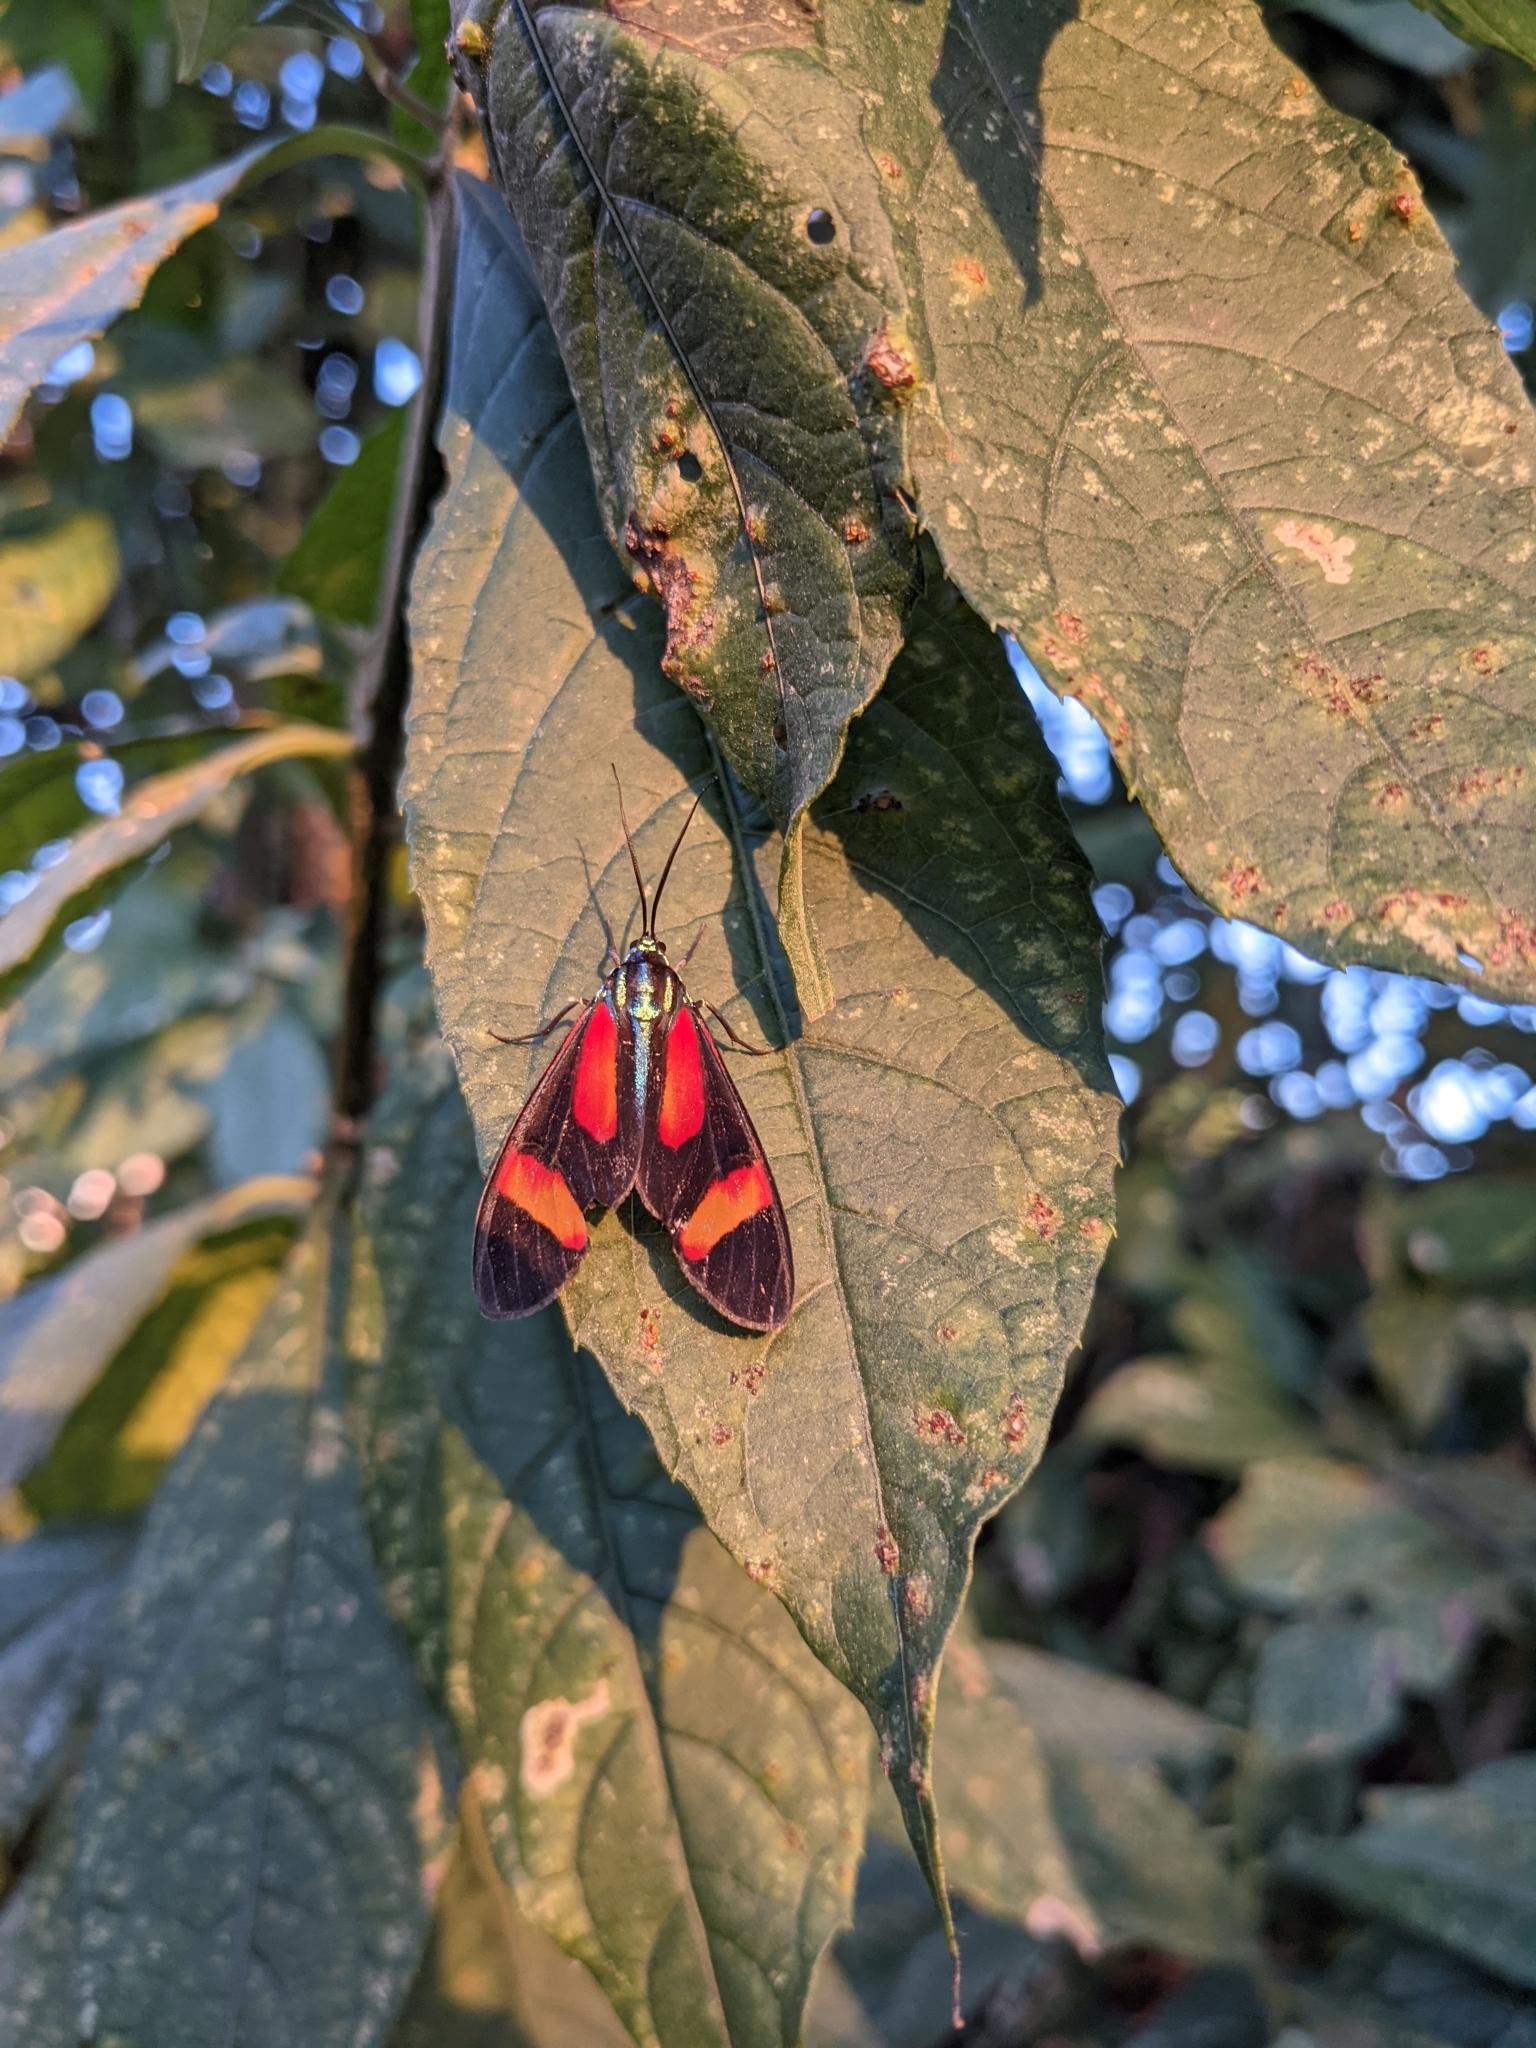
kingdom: Animalia
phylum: Arthropoda
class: Insecta
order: Lepidoptera
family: Erebidae
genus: Cyanopepla
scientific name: Cyanopepla submacula
